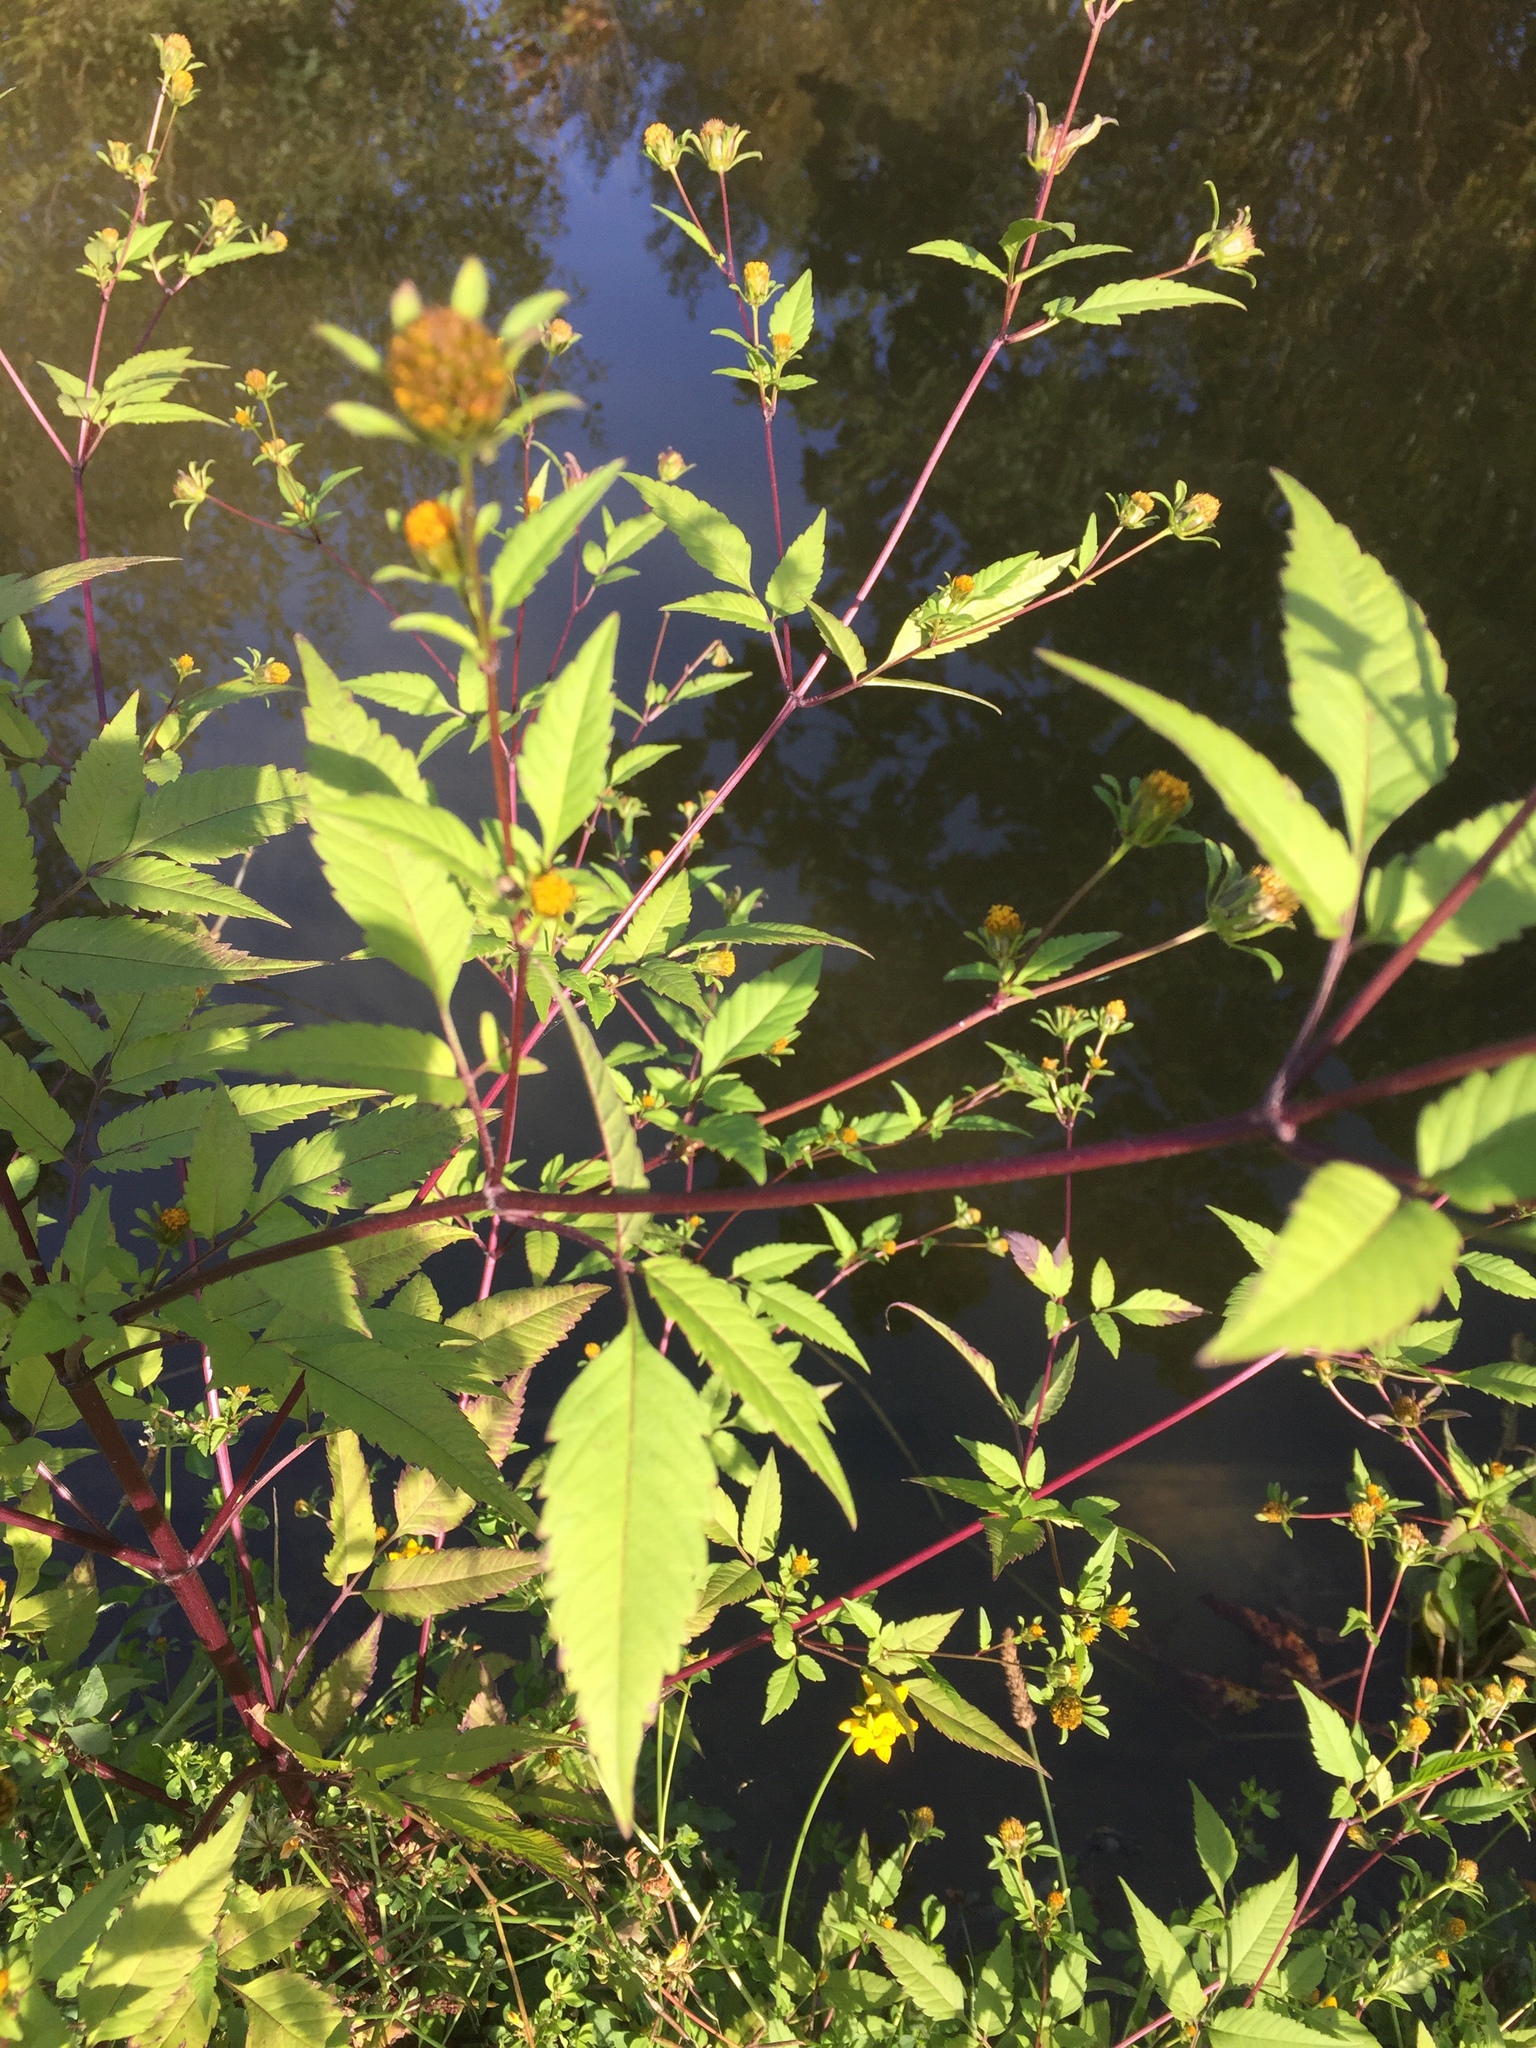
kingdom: Plantae
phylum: Tracheophyta
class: Magnoliopsida
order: Asterales
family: Asteraceae
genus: Bidens
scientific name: Bidens frondosa
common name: Beggarticks
